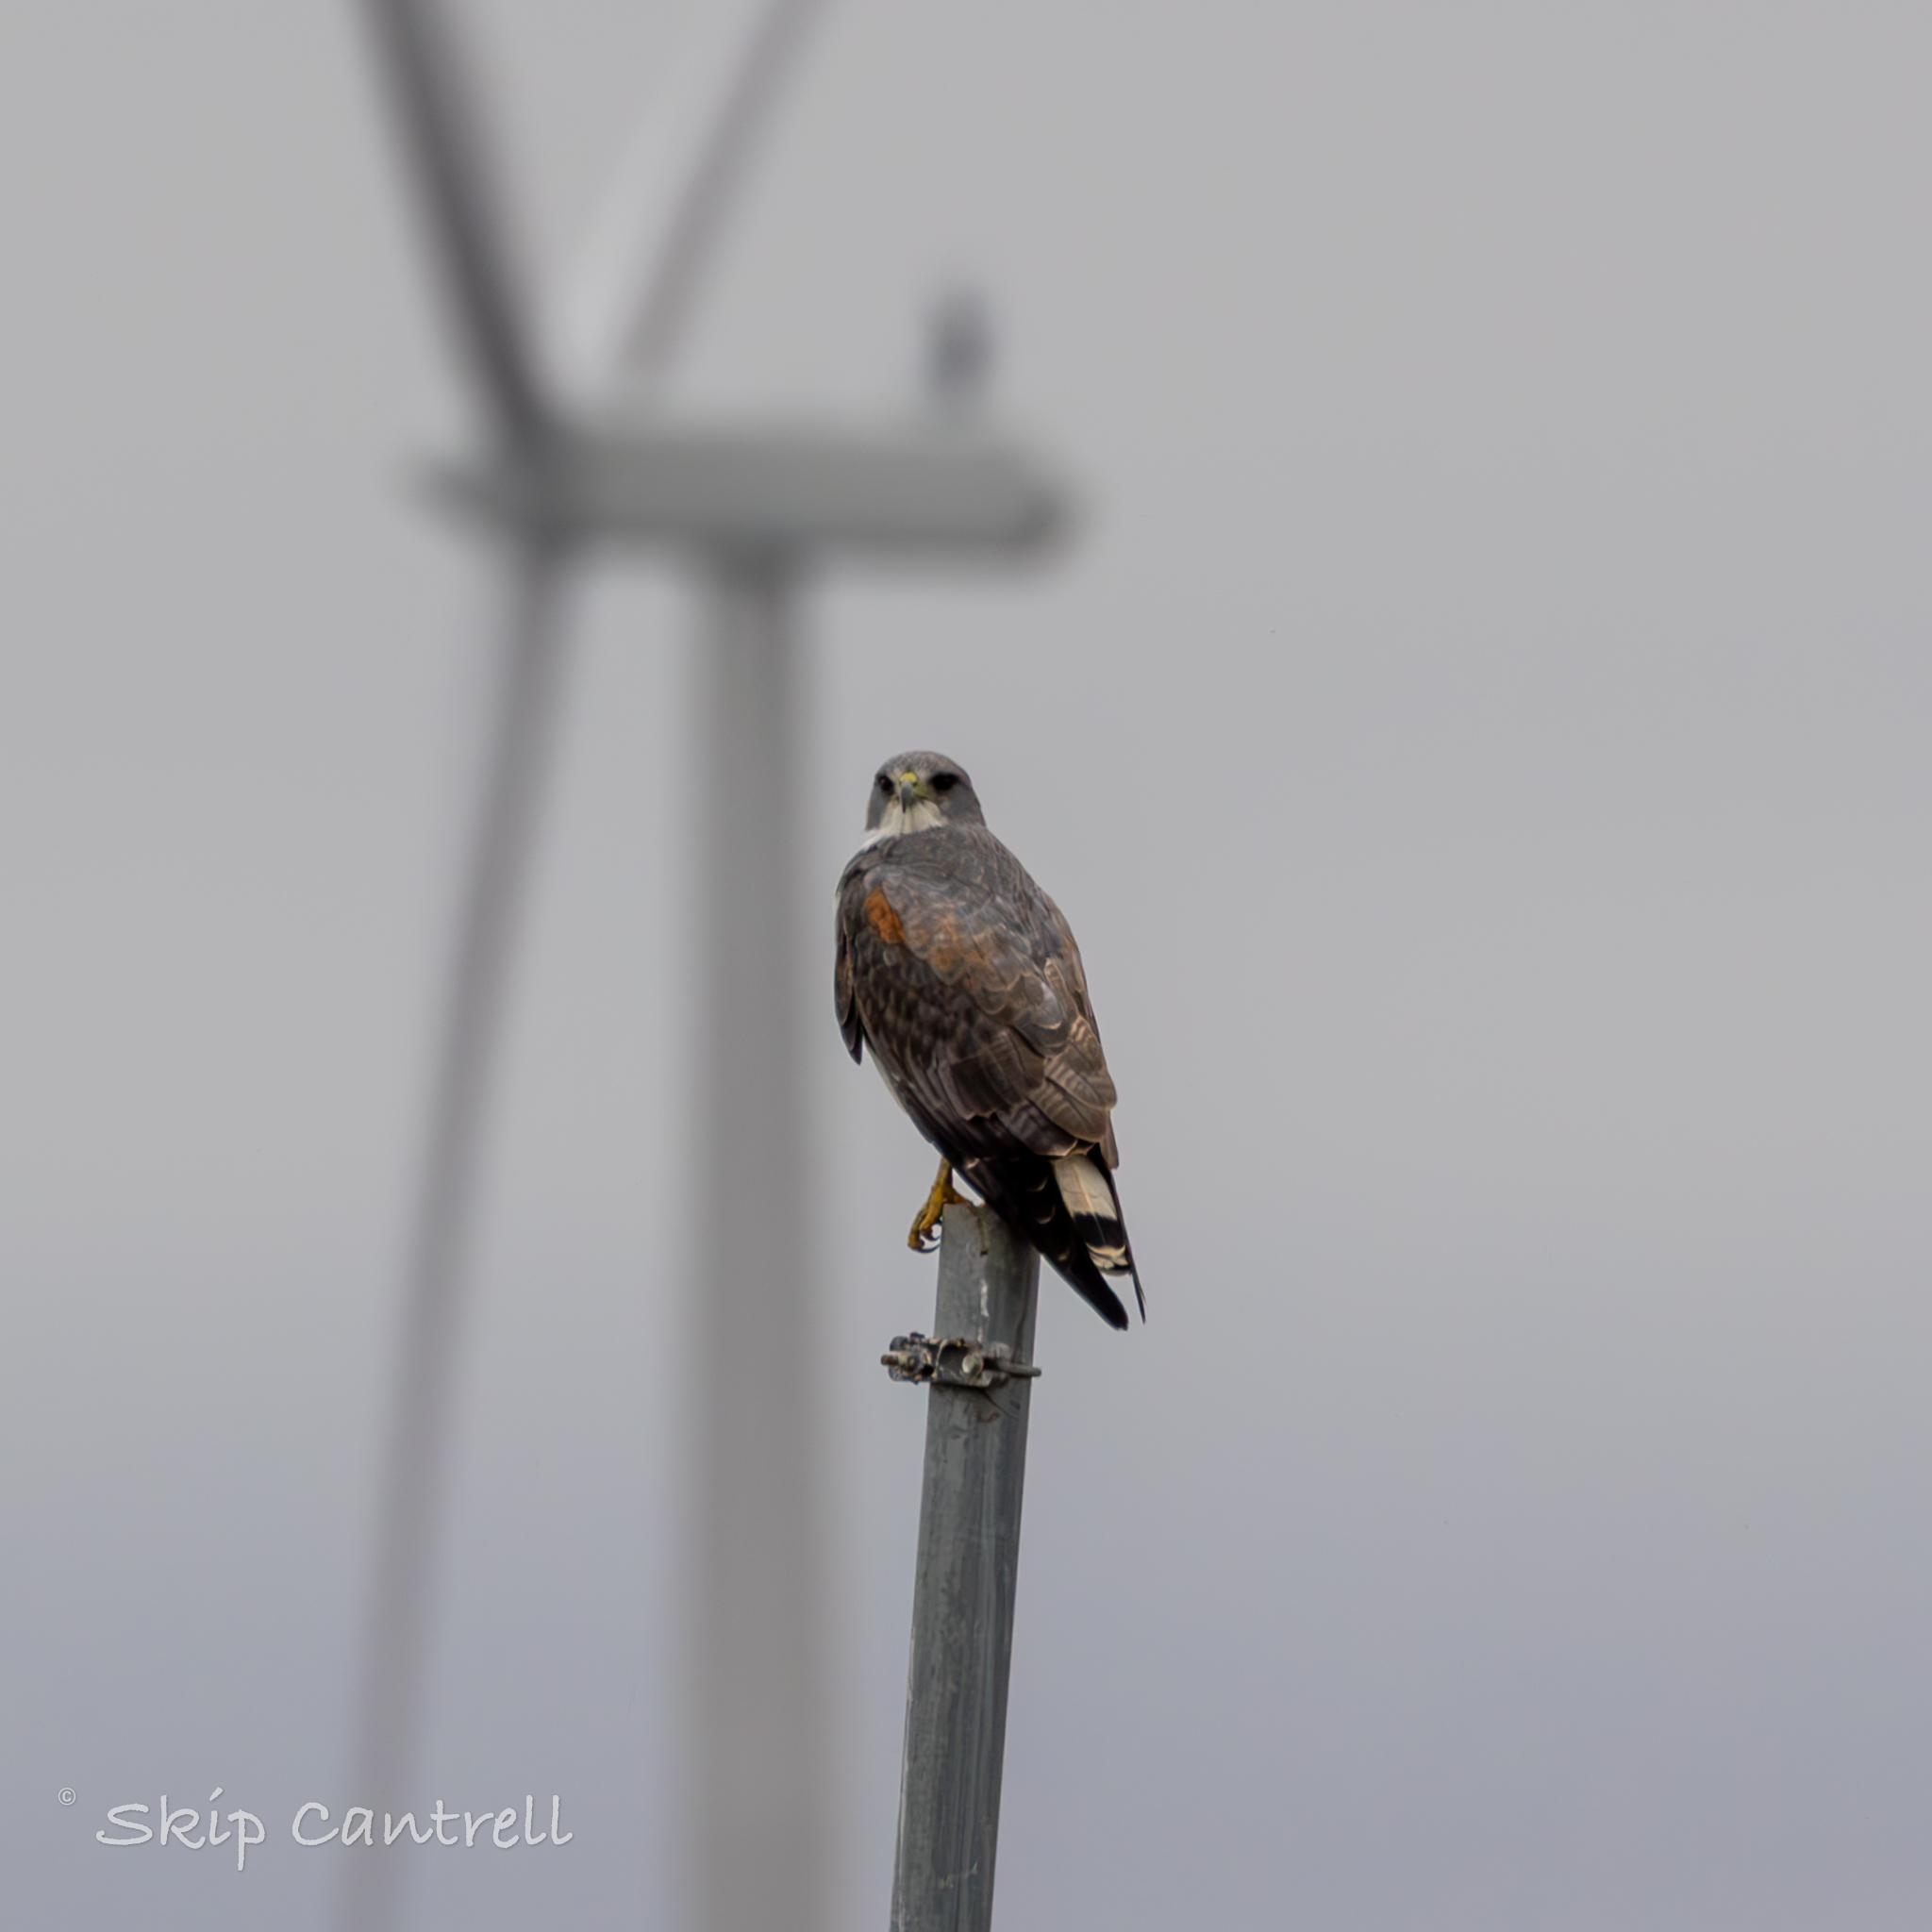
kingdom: Animalia
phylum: Chordata
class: Aves
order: Accipitriformes
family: Accipitridae
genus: Buteo
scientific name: Buteo albicaudatus
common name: White-tailed hawk
